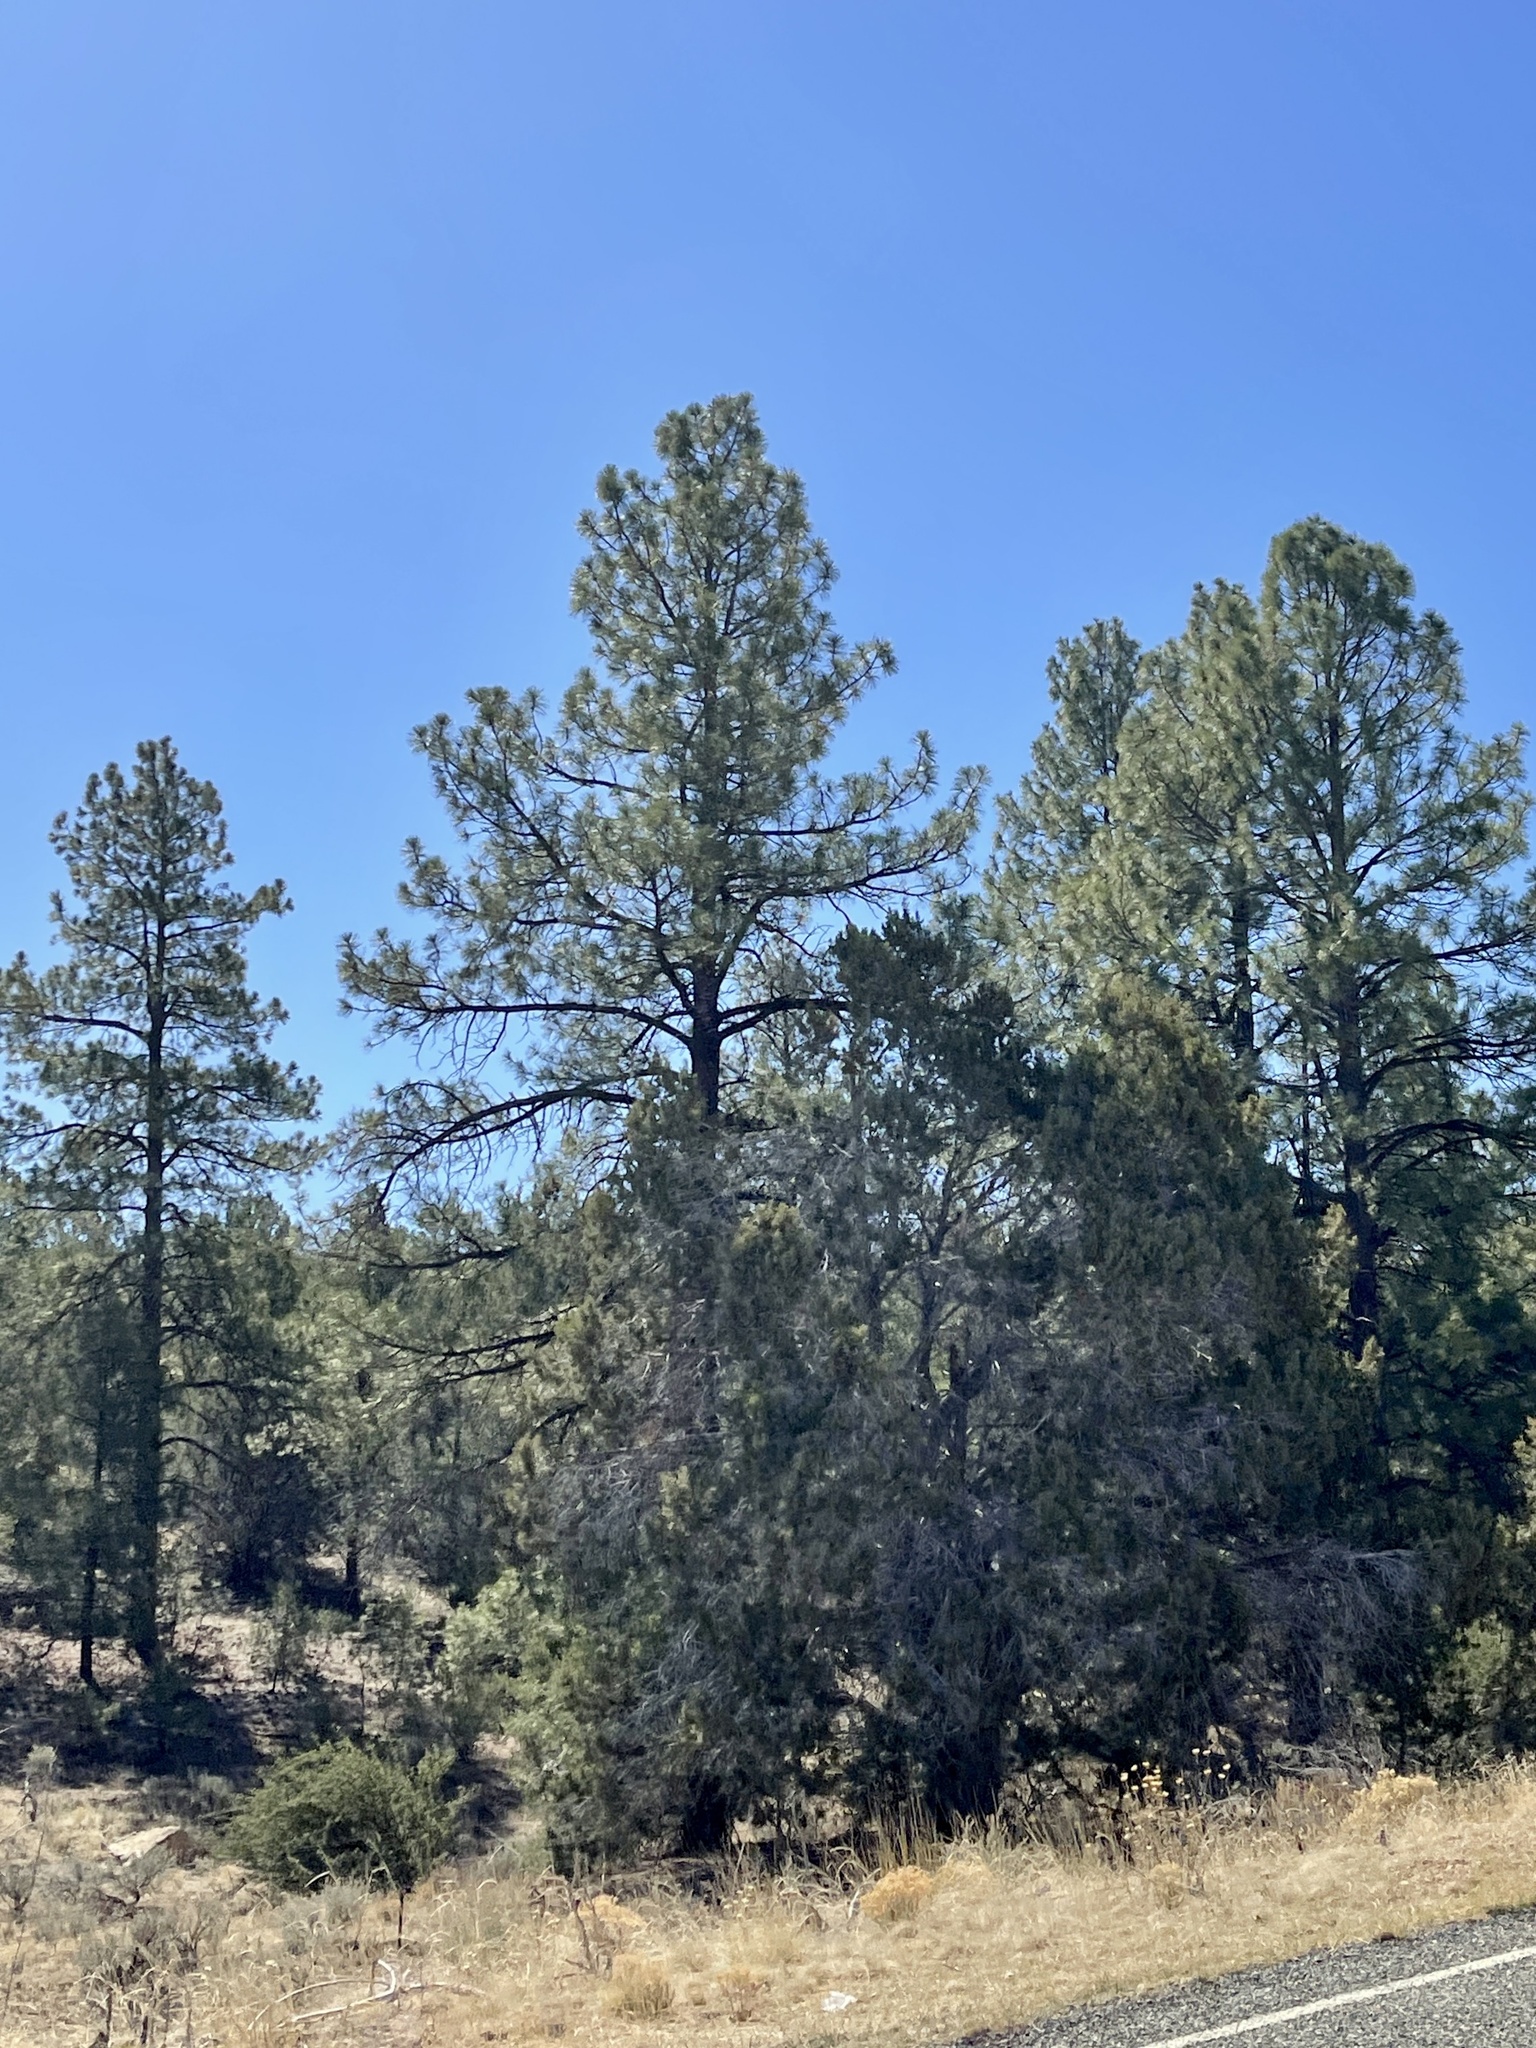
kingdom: Plantae
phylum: Tracheophyta
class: Pinopsida
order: Pinales
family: Pinaceae
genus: Pinus
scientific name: Pinus ponderosa
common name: Western yellow-pine
